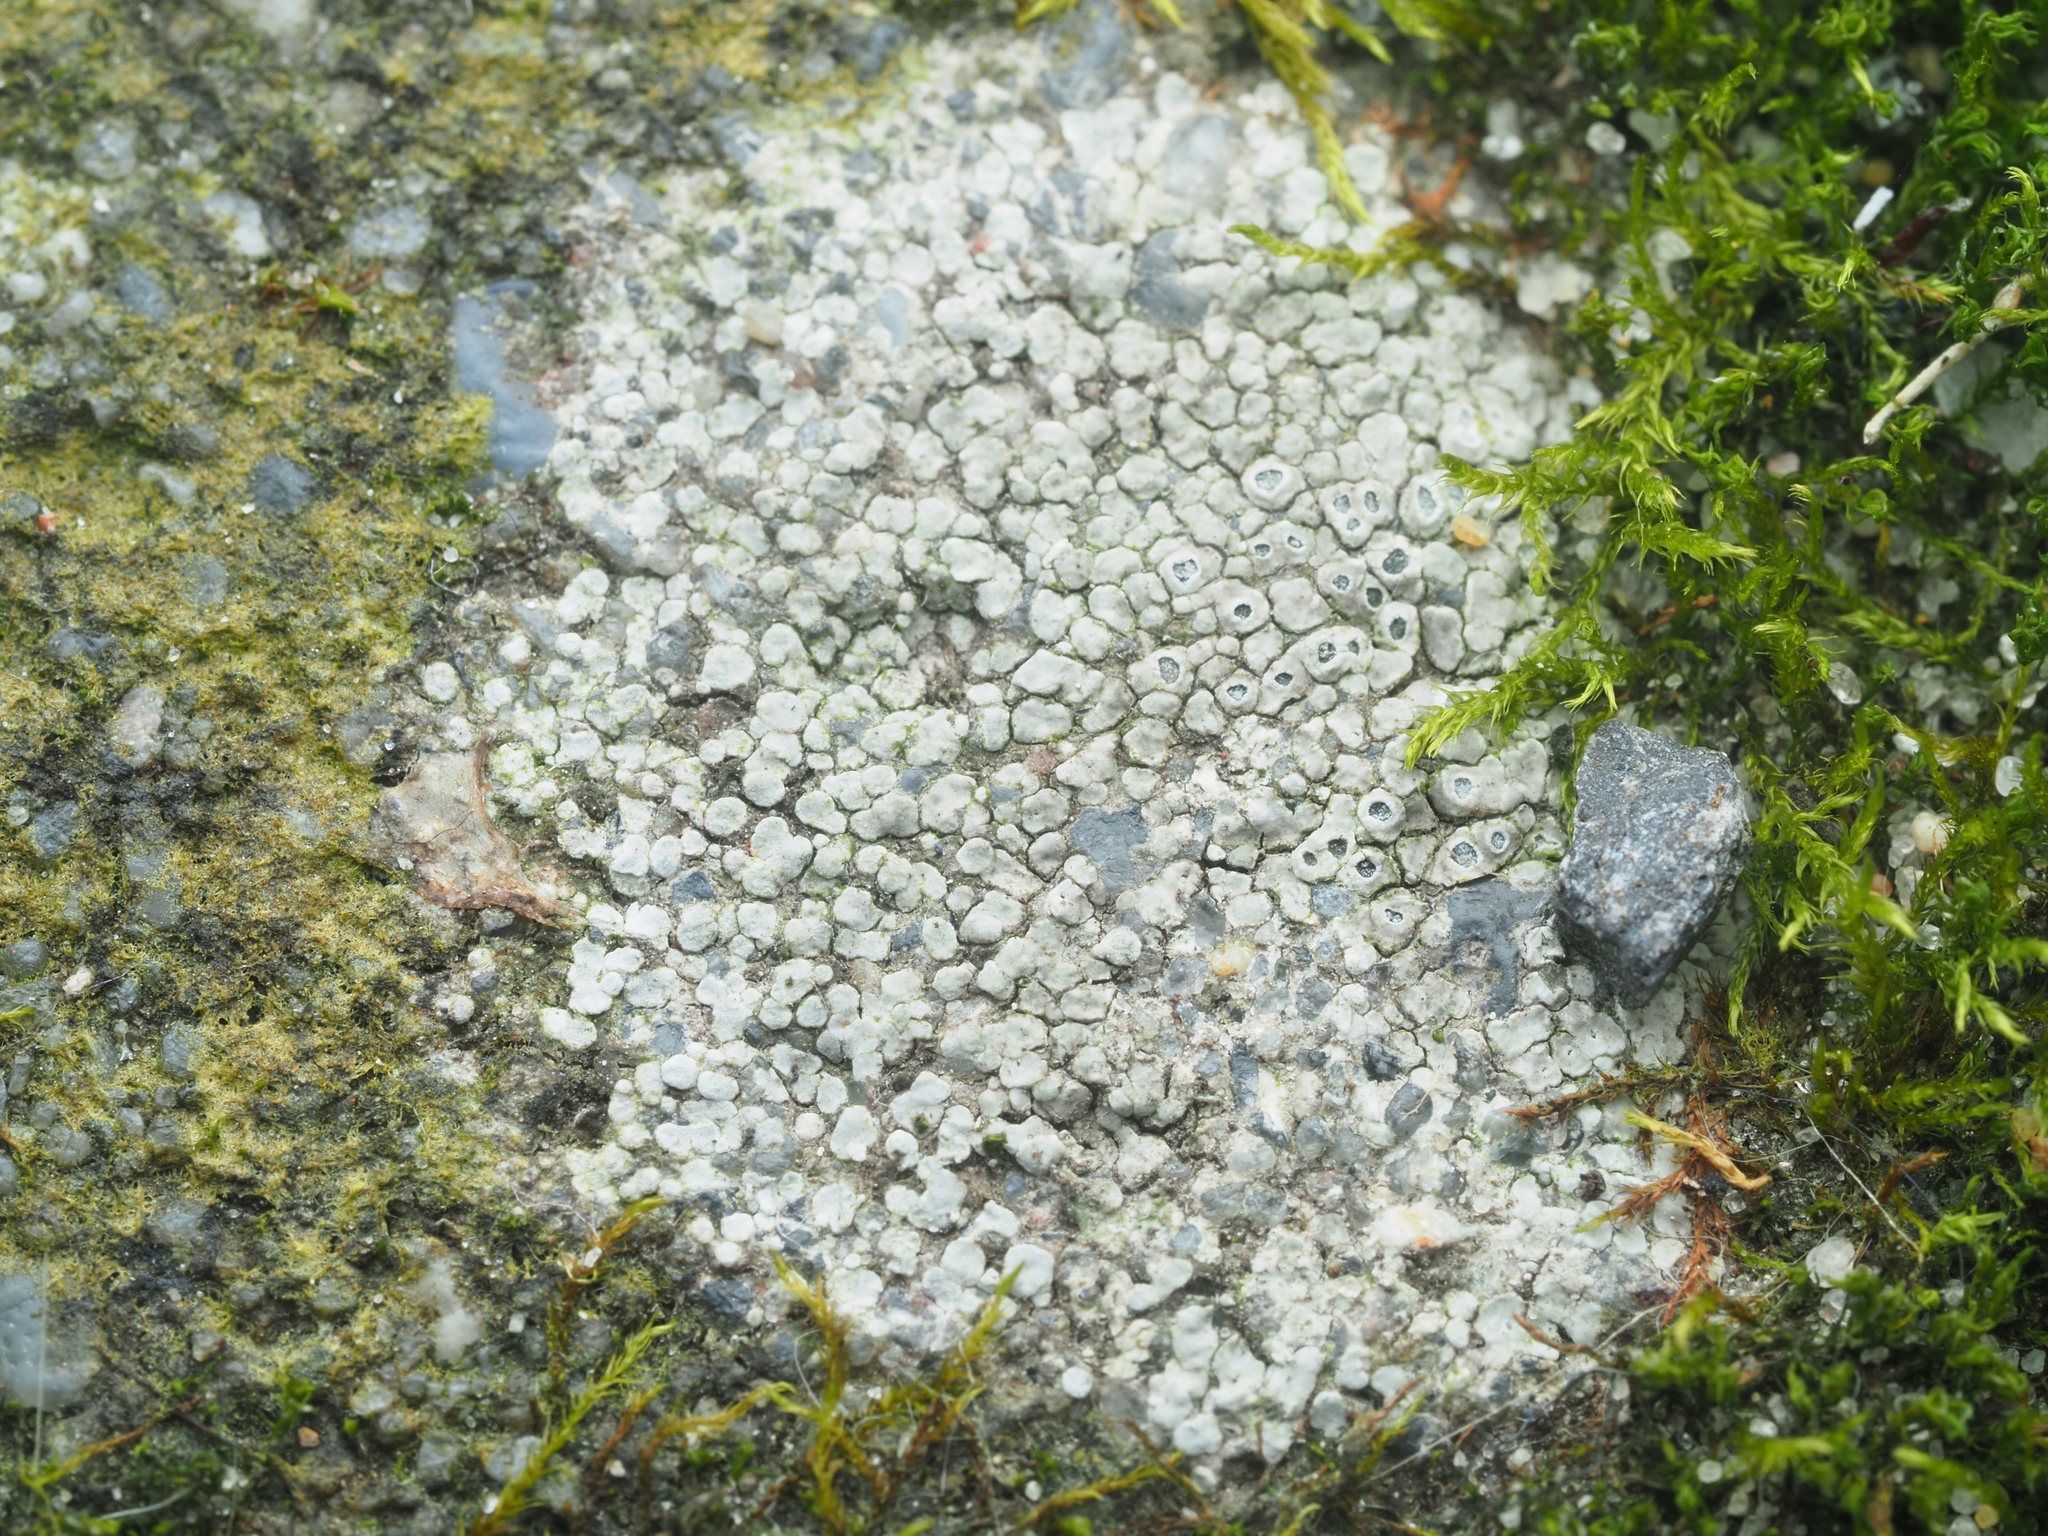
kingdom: Fungi
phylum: Ascomycota
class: Lecanoromycetes
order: Pertusariales
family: Megasporaceae
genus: Circinaria
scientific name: Circinaria contorta
